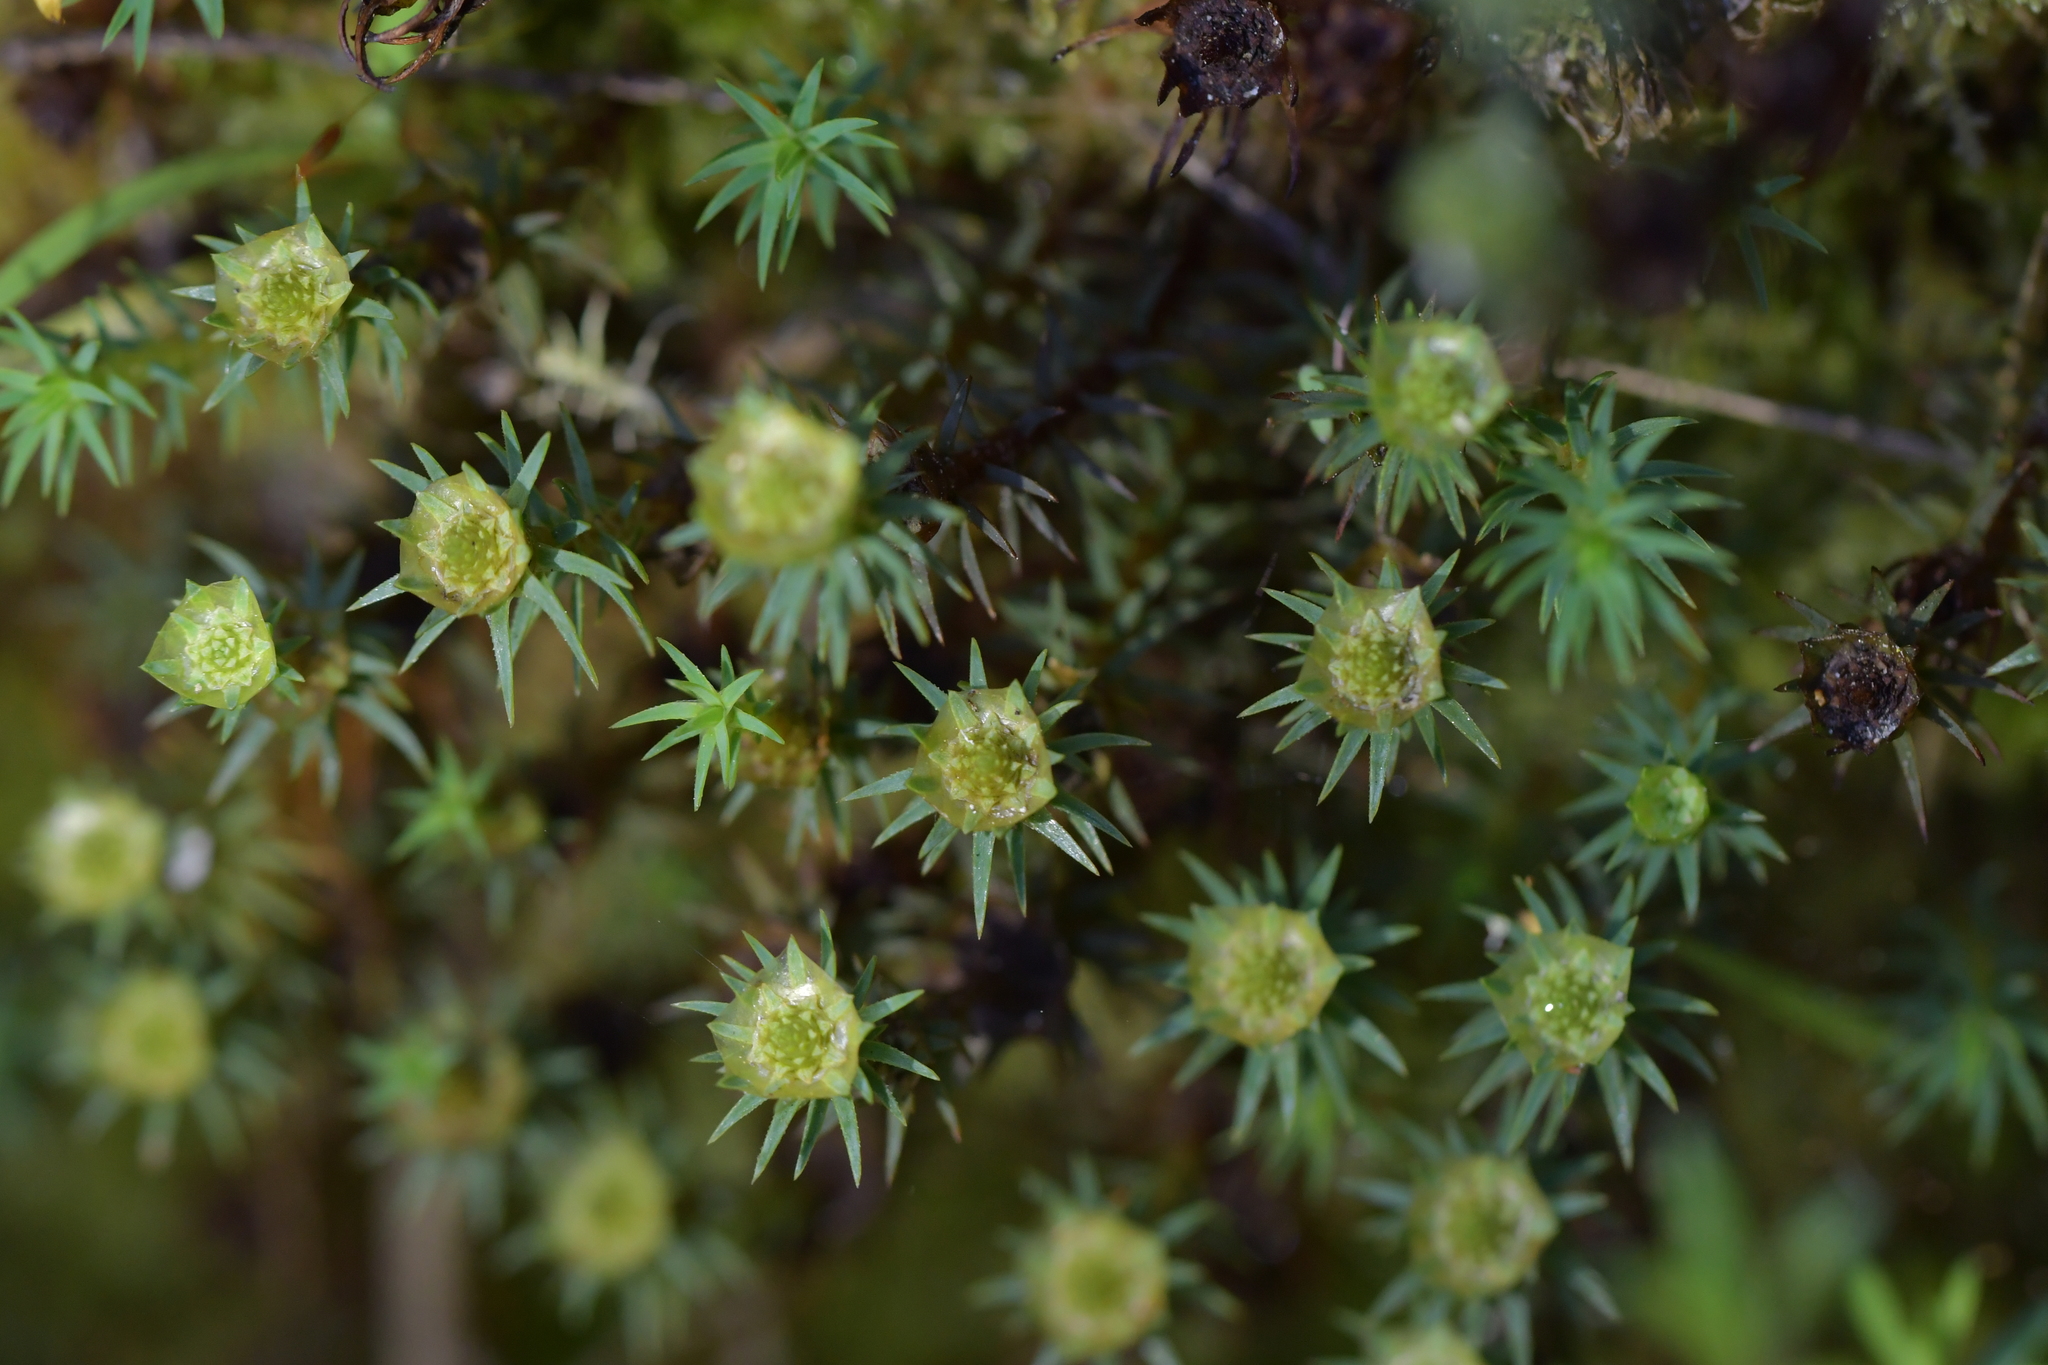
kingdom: Plantae
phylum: Bryophyta
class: Polytrichopsida
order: Polytrichales
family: Polytrichaceae
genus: Polytrichum
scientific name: Polytrichum juniperinum
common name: Juniper haircap moss
